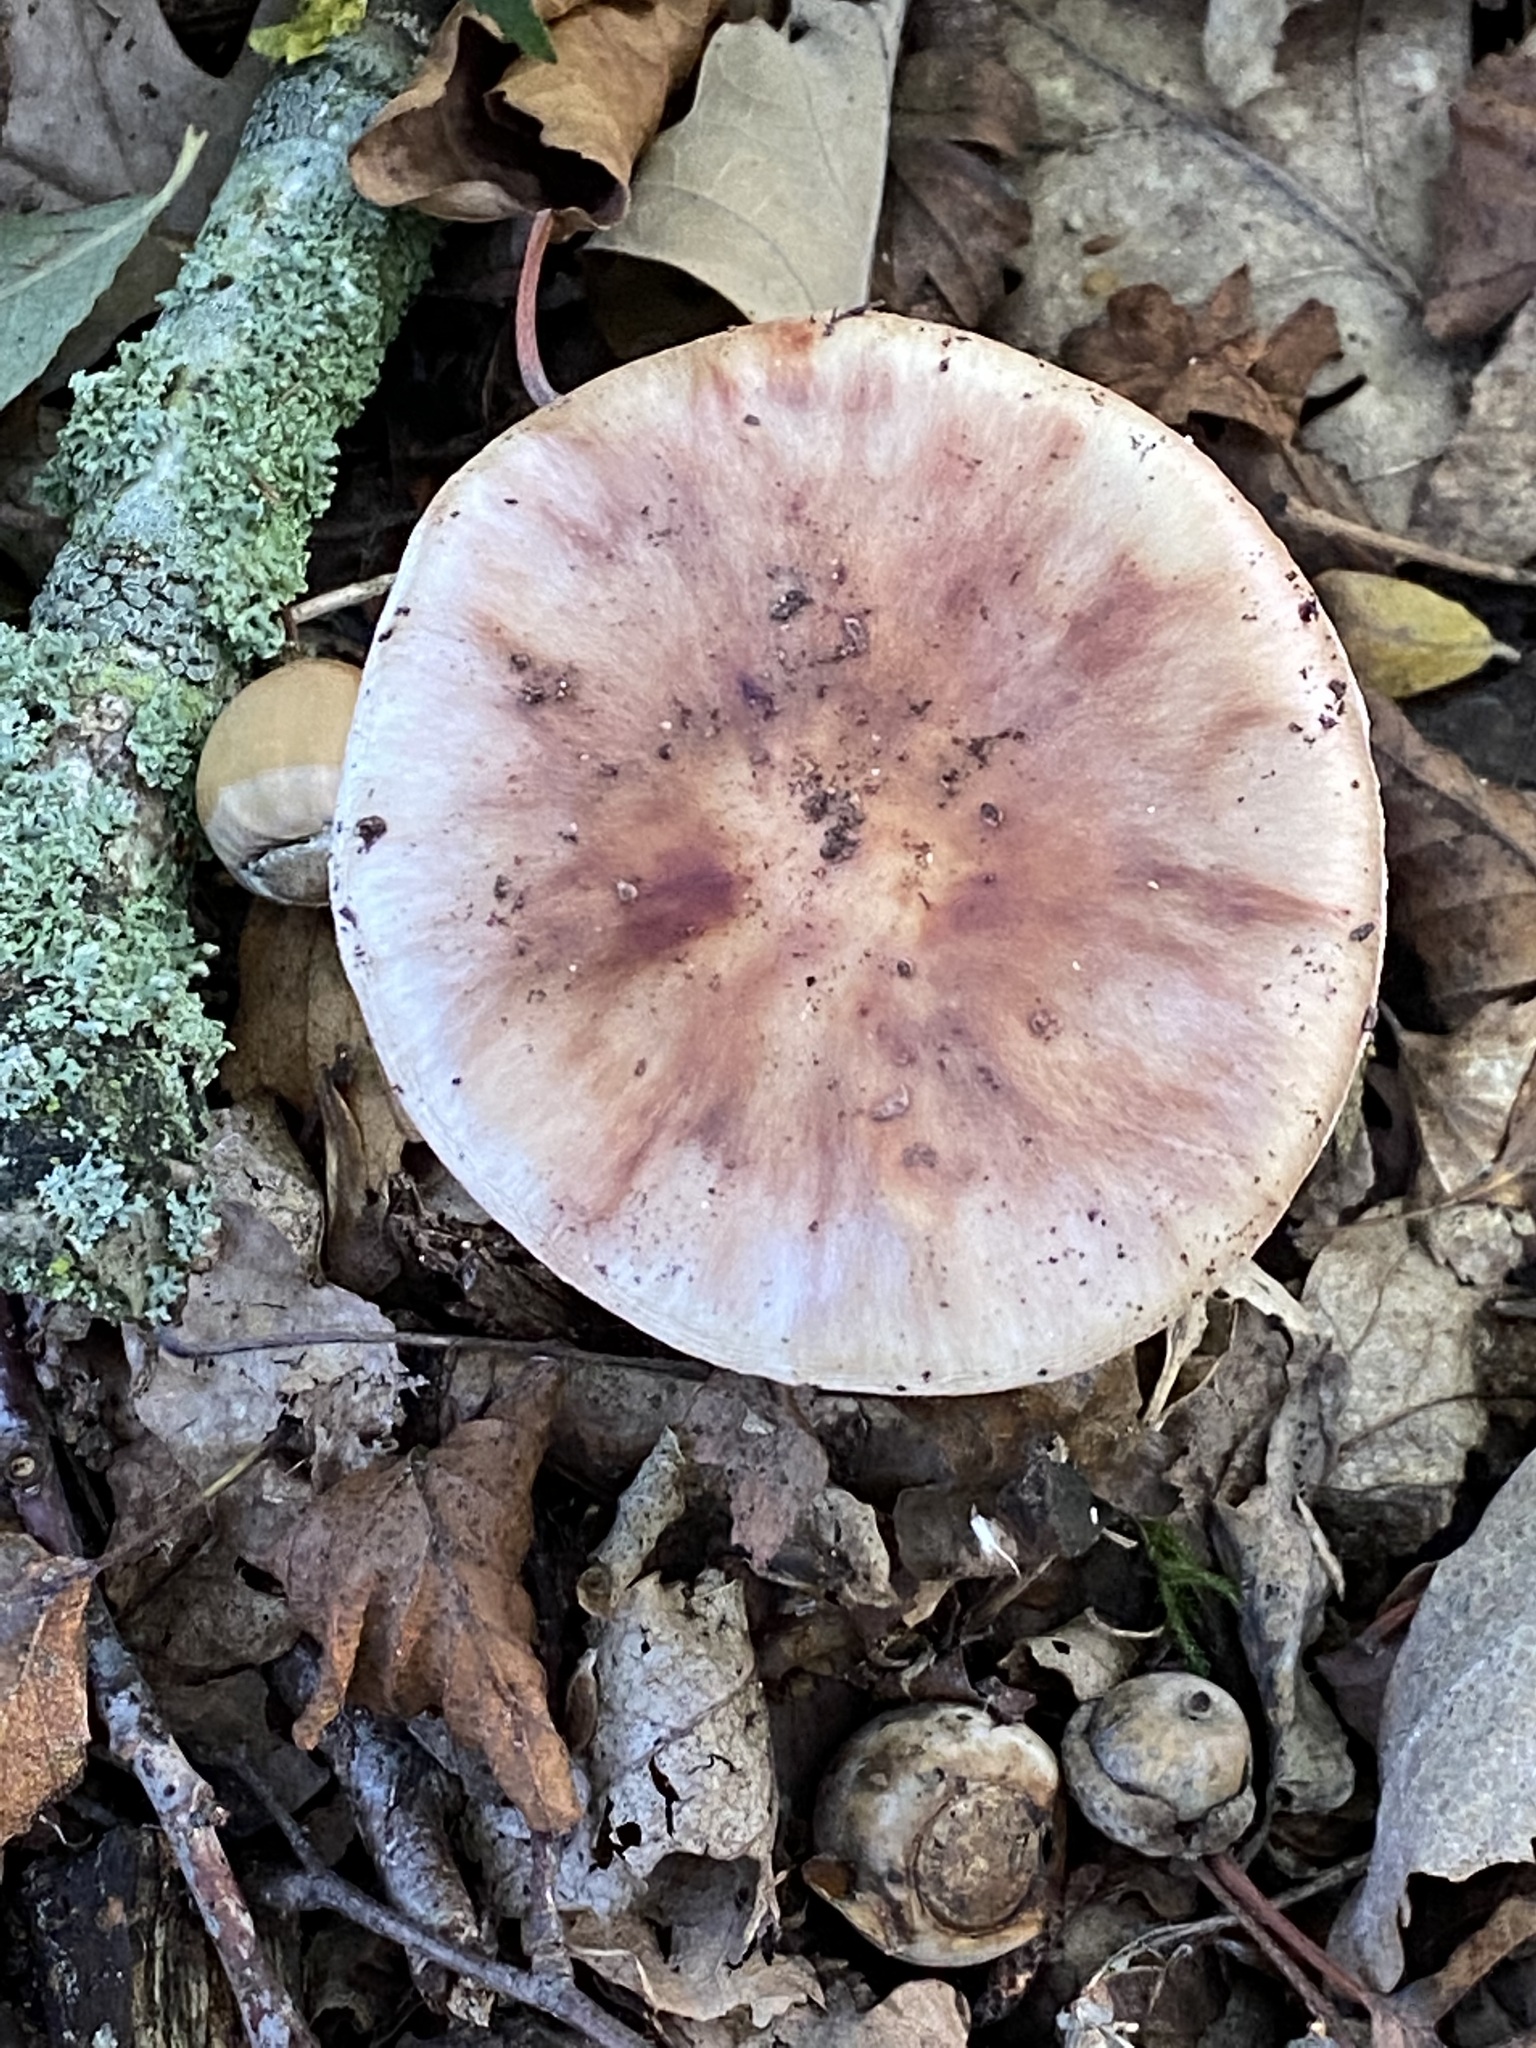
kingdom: Fungi
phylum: Basidiomycota
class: Agaricomycetes
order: Agaricales
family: Amanitaceae
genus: Amanita
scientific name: Amanita rubescens
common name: Blusher
